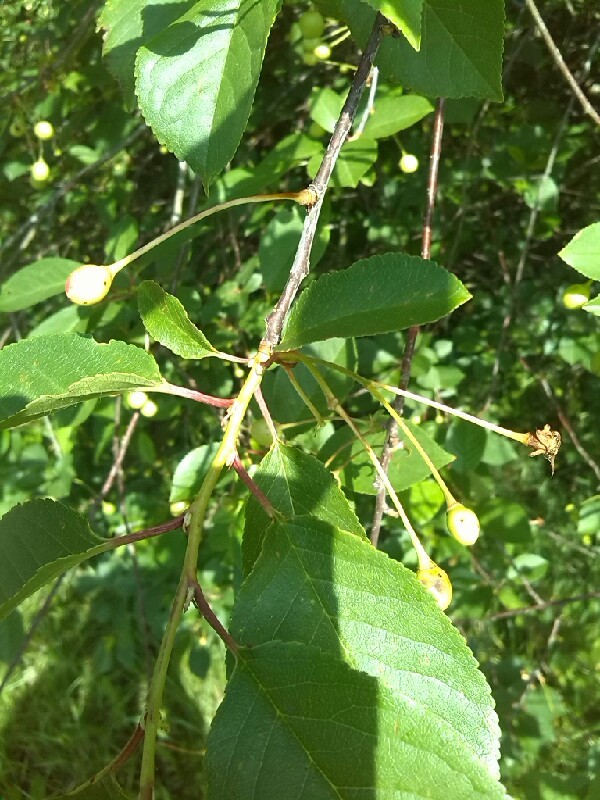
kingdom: Plantae
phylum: Tracheophyta
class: Magnoliopsida
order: Rosales
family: Rosaceae
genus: Prunus
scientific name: Prunus cerasus
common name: Morello cherry
